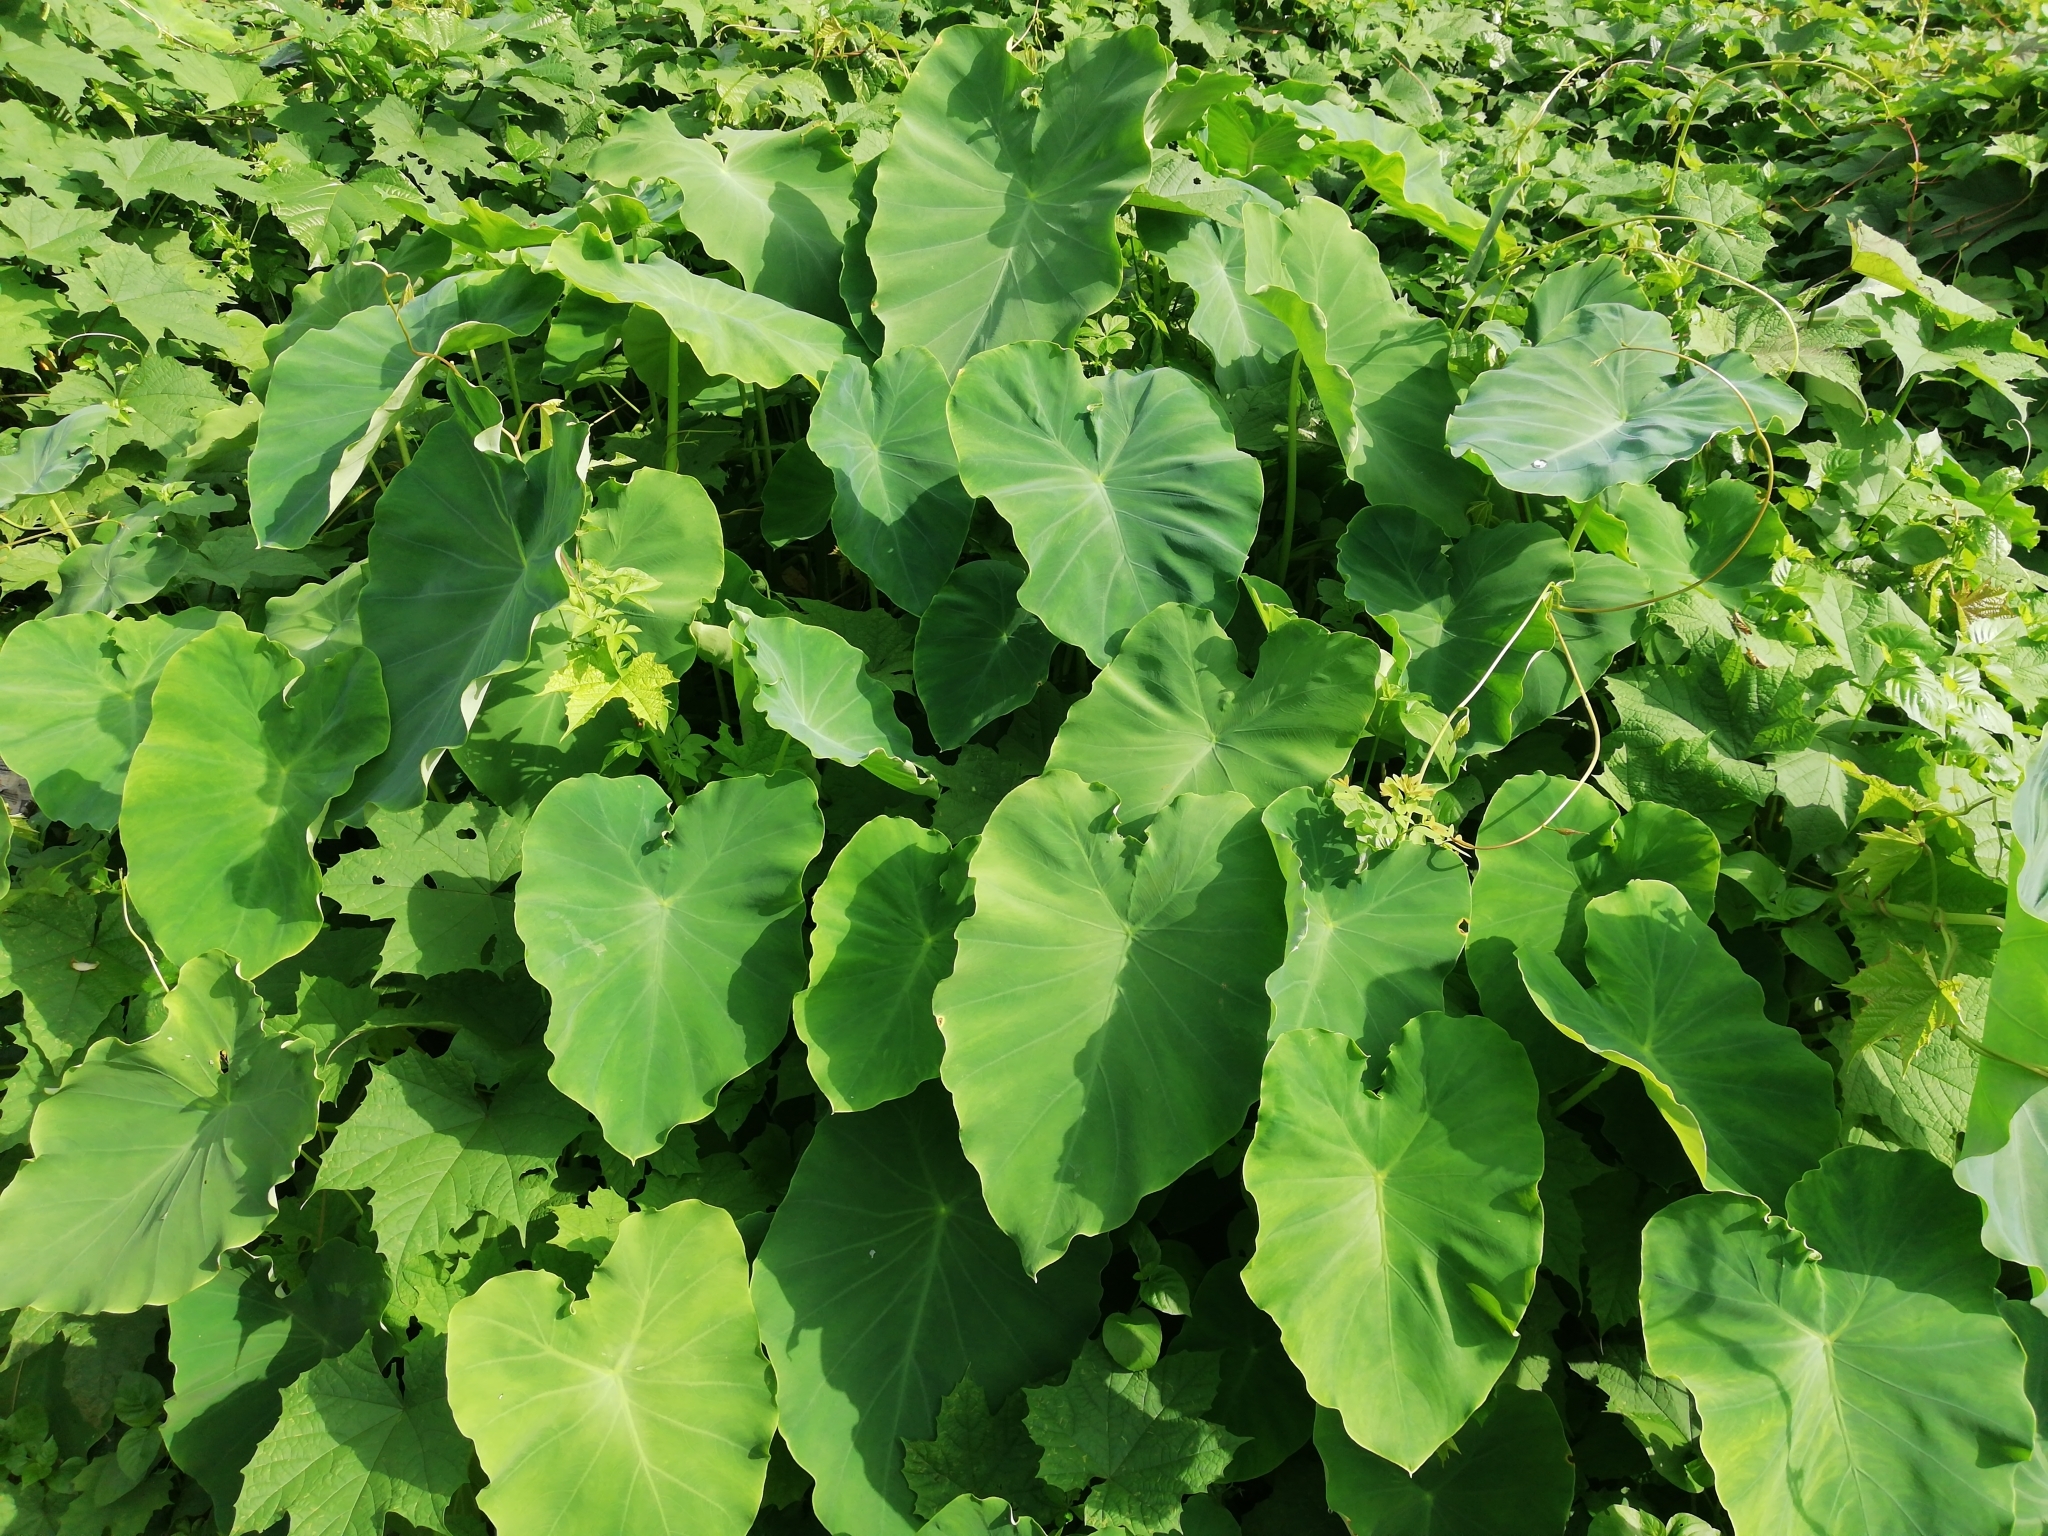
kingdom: Plantae
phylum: Tracheophyta
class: Liliopsida
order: Alismatales
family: Araceae
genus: Colocasia
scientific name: Colocasia esculenta
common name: Taro
